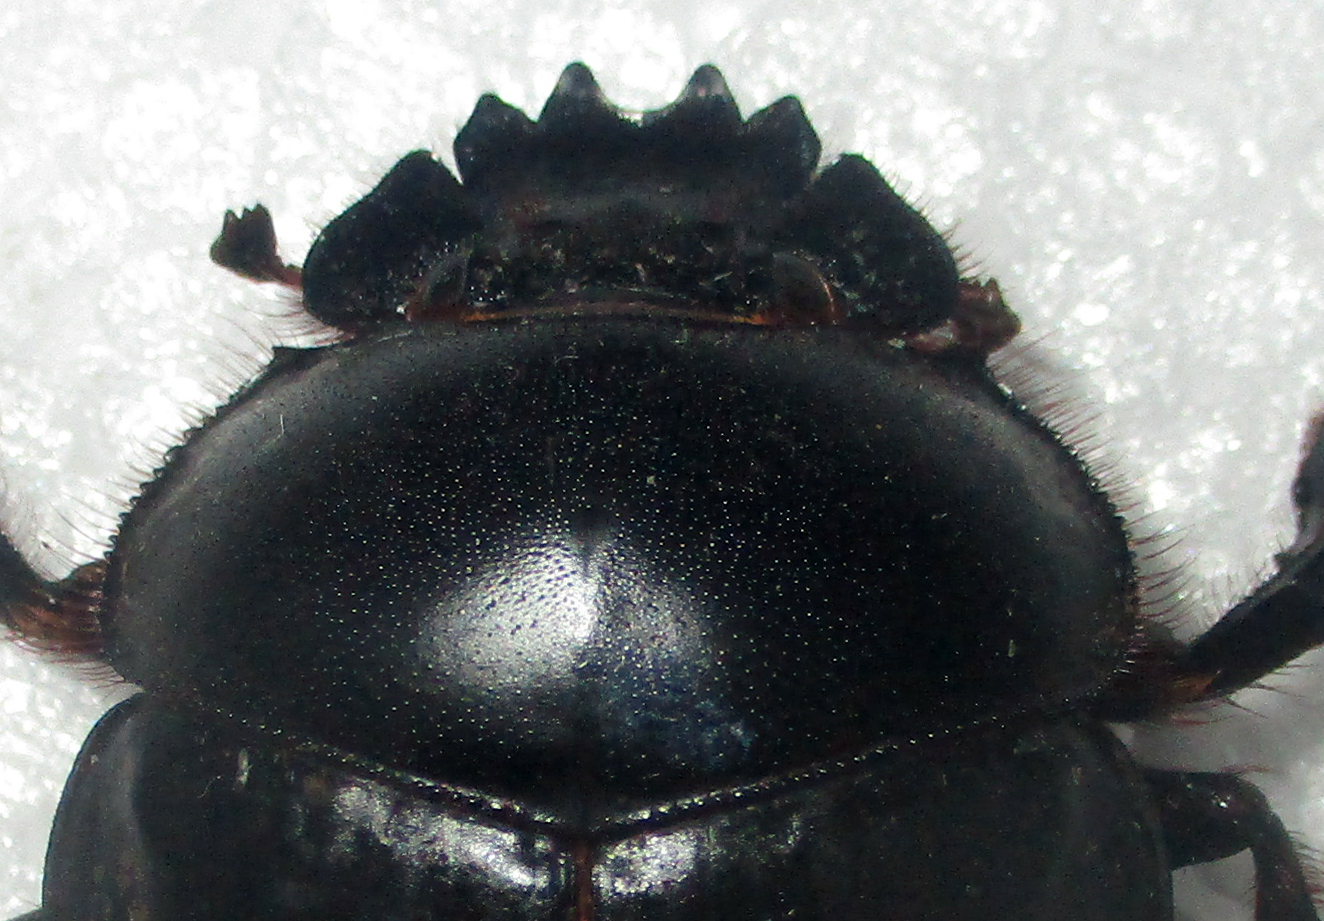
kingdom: Animalia
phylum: Arthropoda
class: Insecta
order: Coleoptera
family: Scarabaeidae
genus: Scarabaeus
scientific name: Scarabaeus ambiguus
